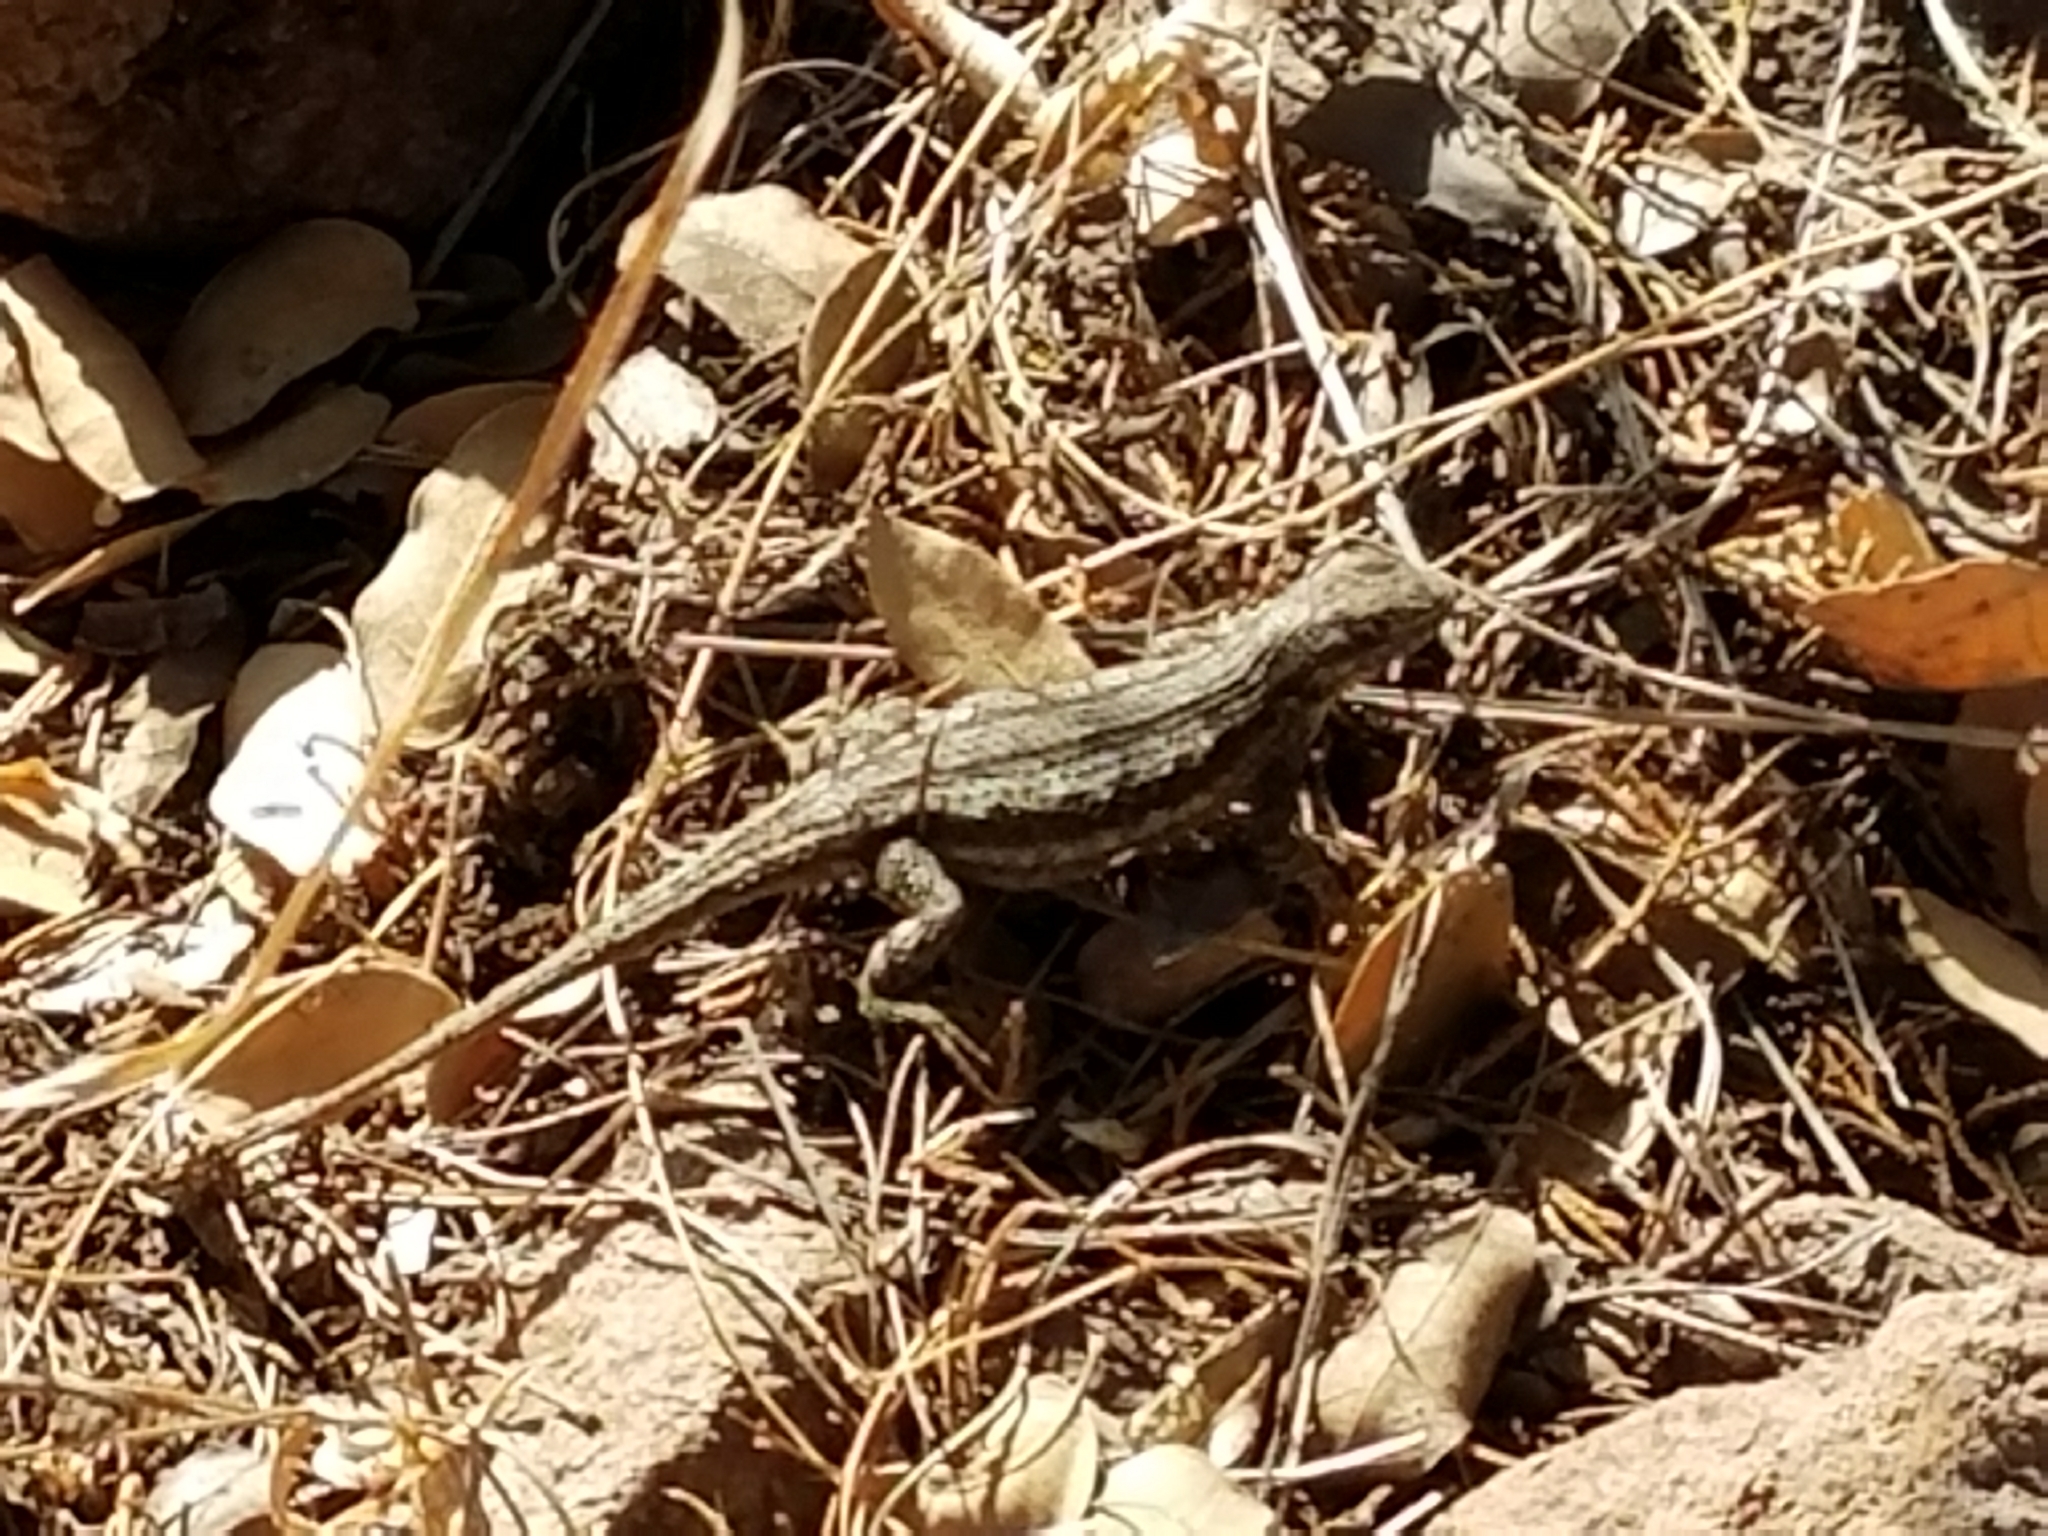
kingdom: Animalia
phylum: Chordata
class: Squamata
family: Phrynosomatidae
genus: Sceloporus
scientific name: Sceloporus cowlesi
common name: White sands prairie lizard
